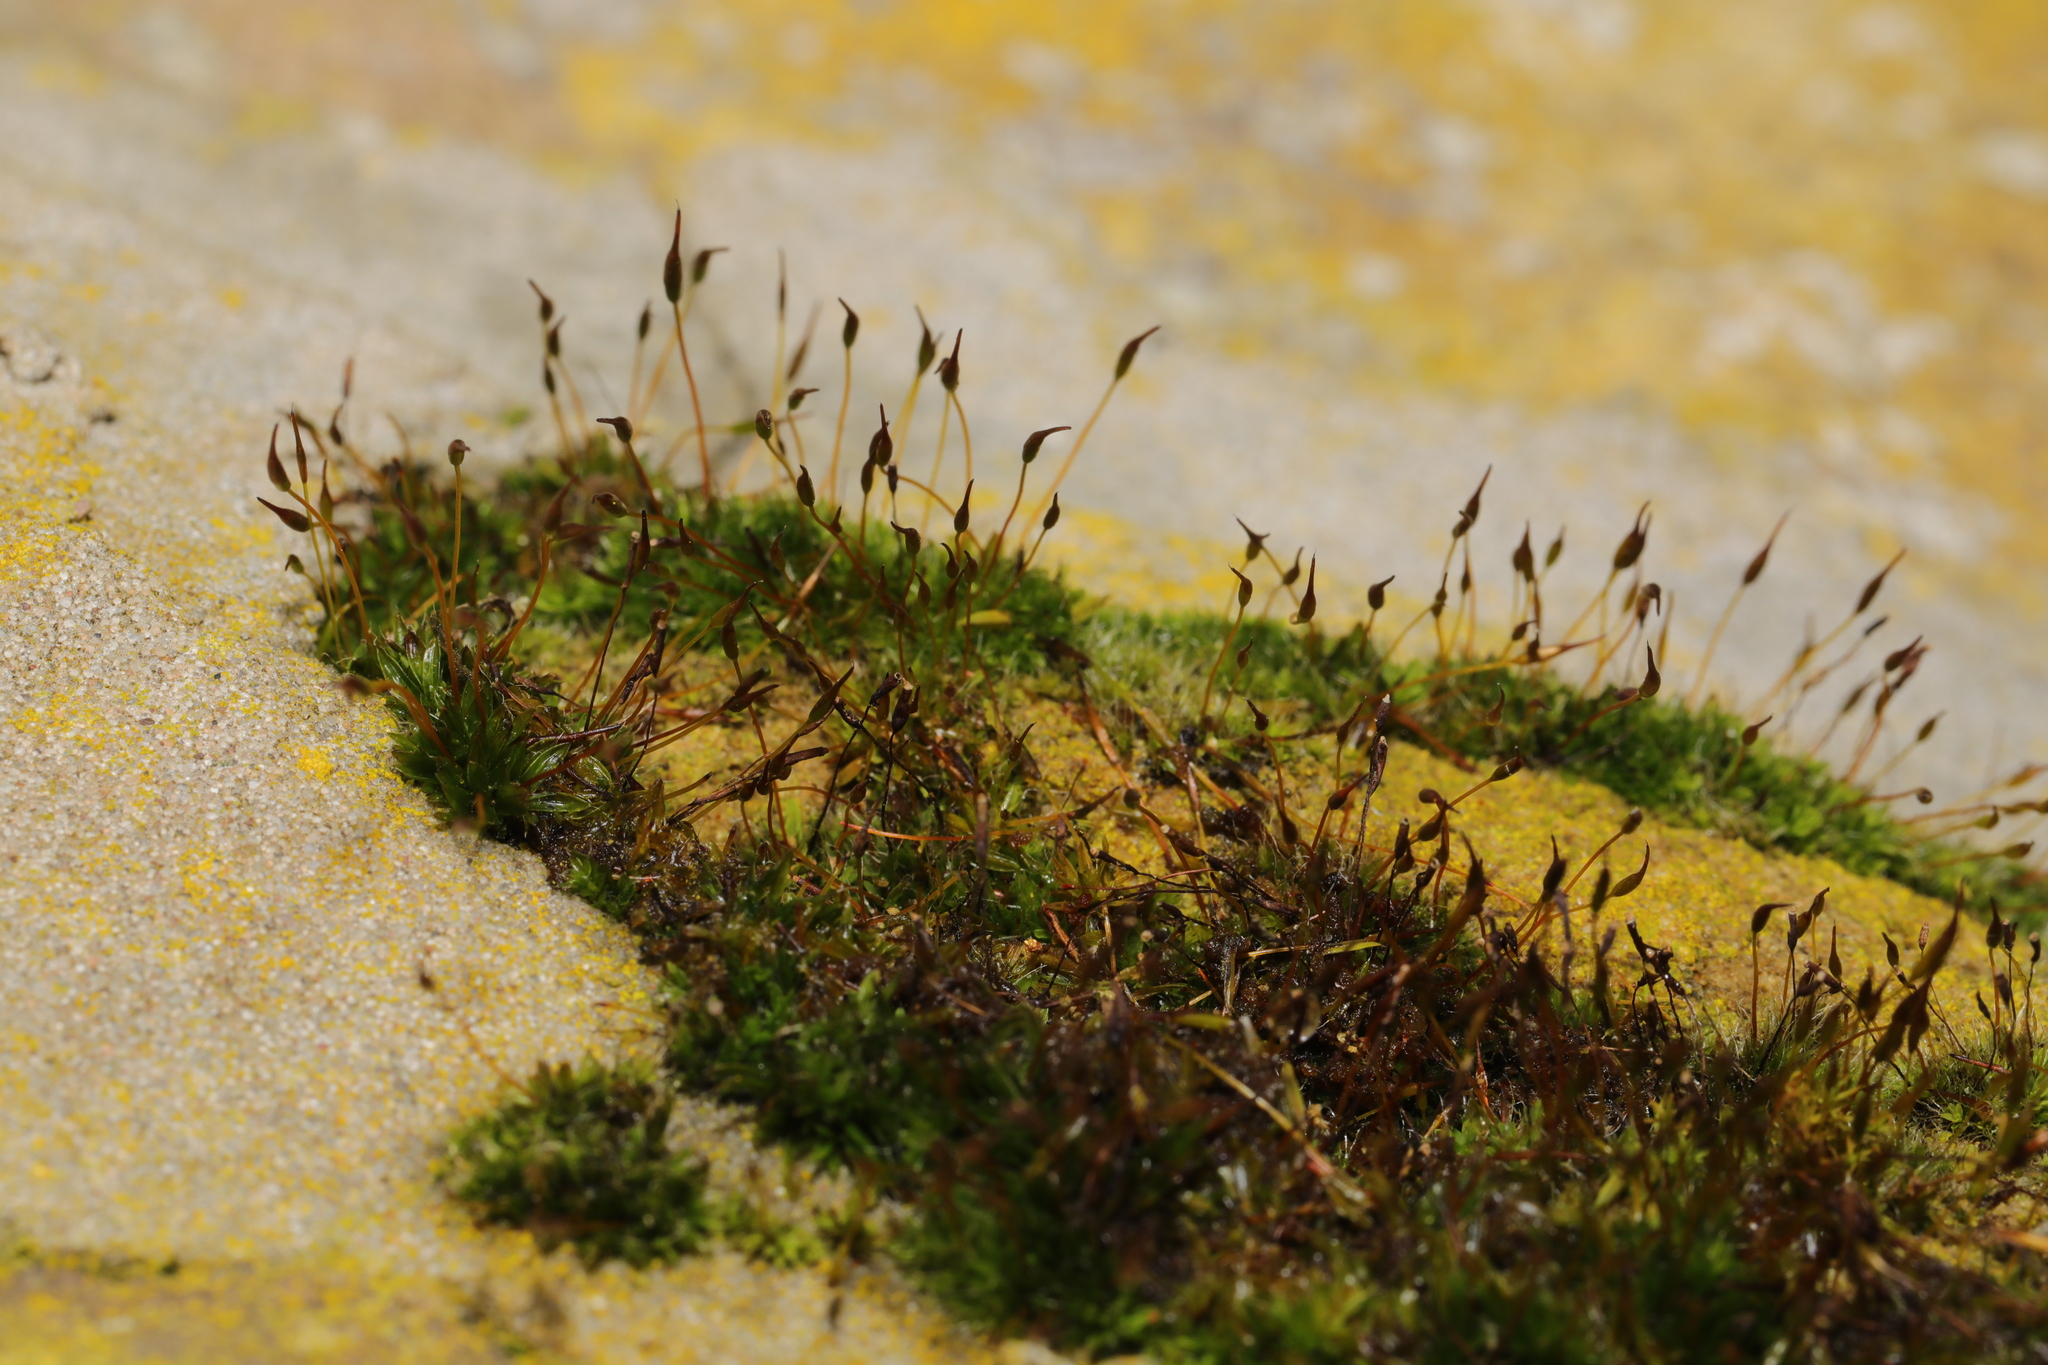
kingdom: Plantae
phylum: Bryophyta
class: Bryopsida
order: Pottiales
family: Pottiaceae
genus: Tortula
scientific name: Tortula muralis
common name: Wall screw-moss
